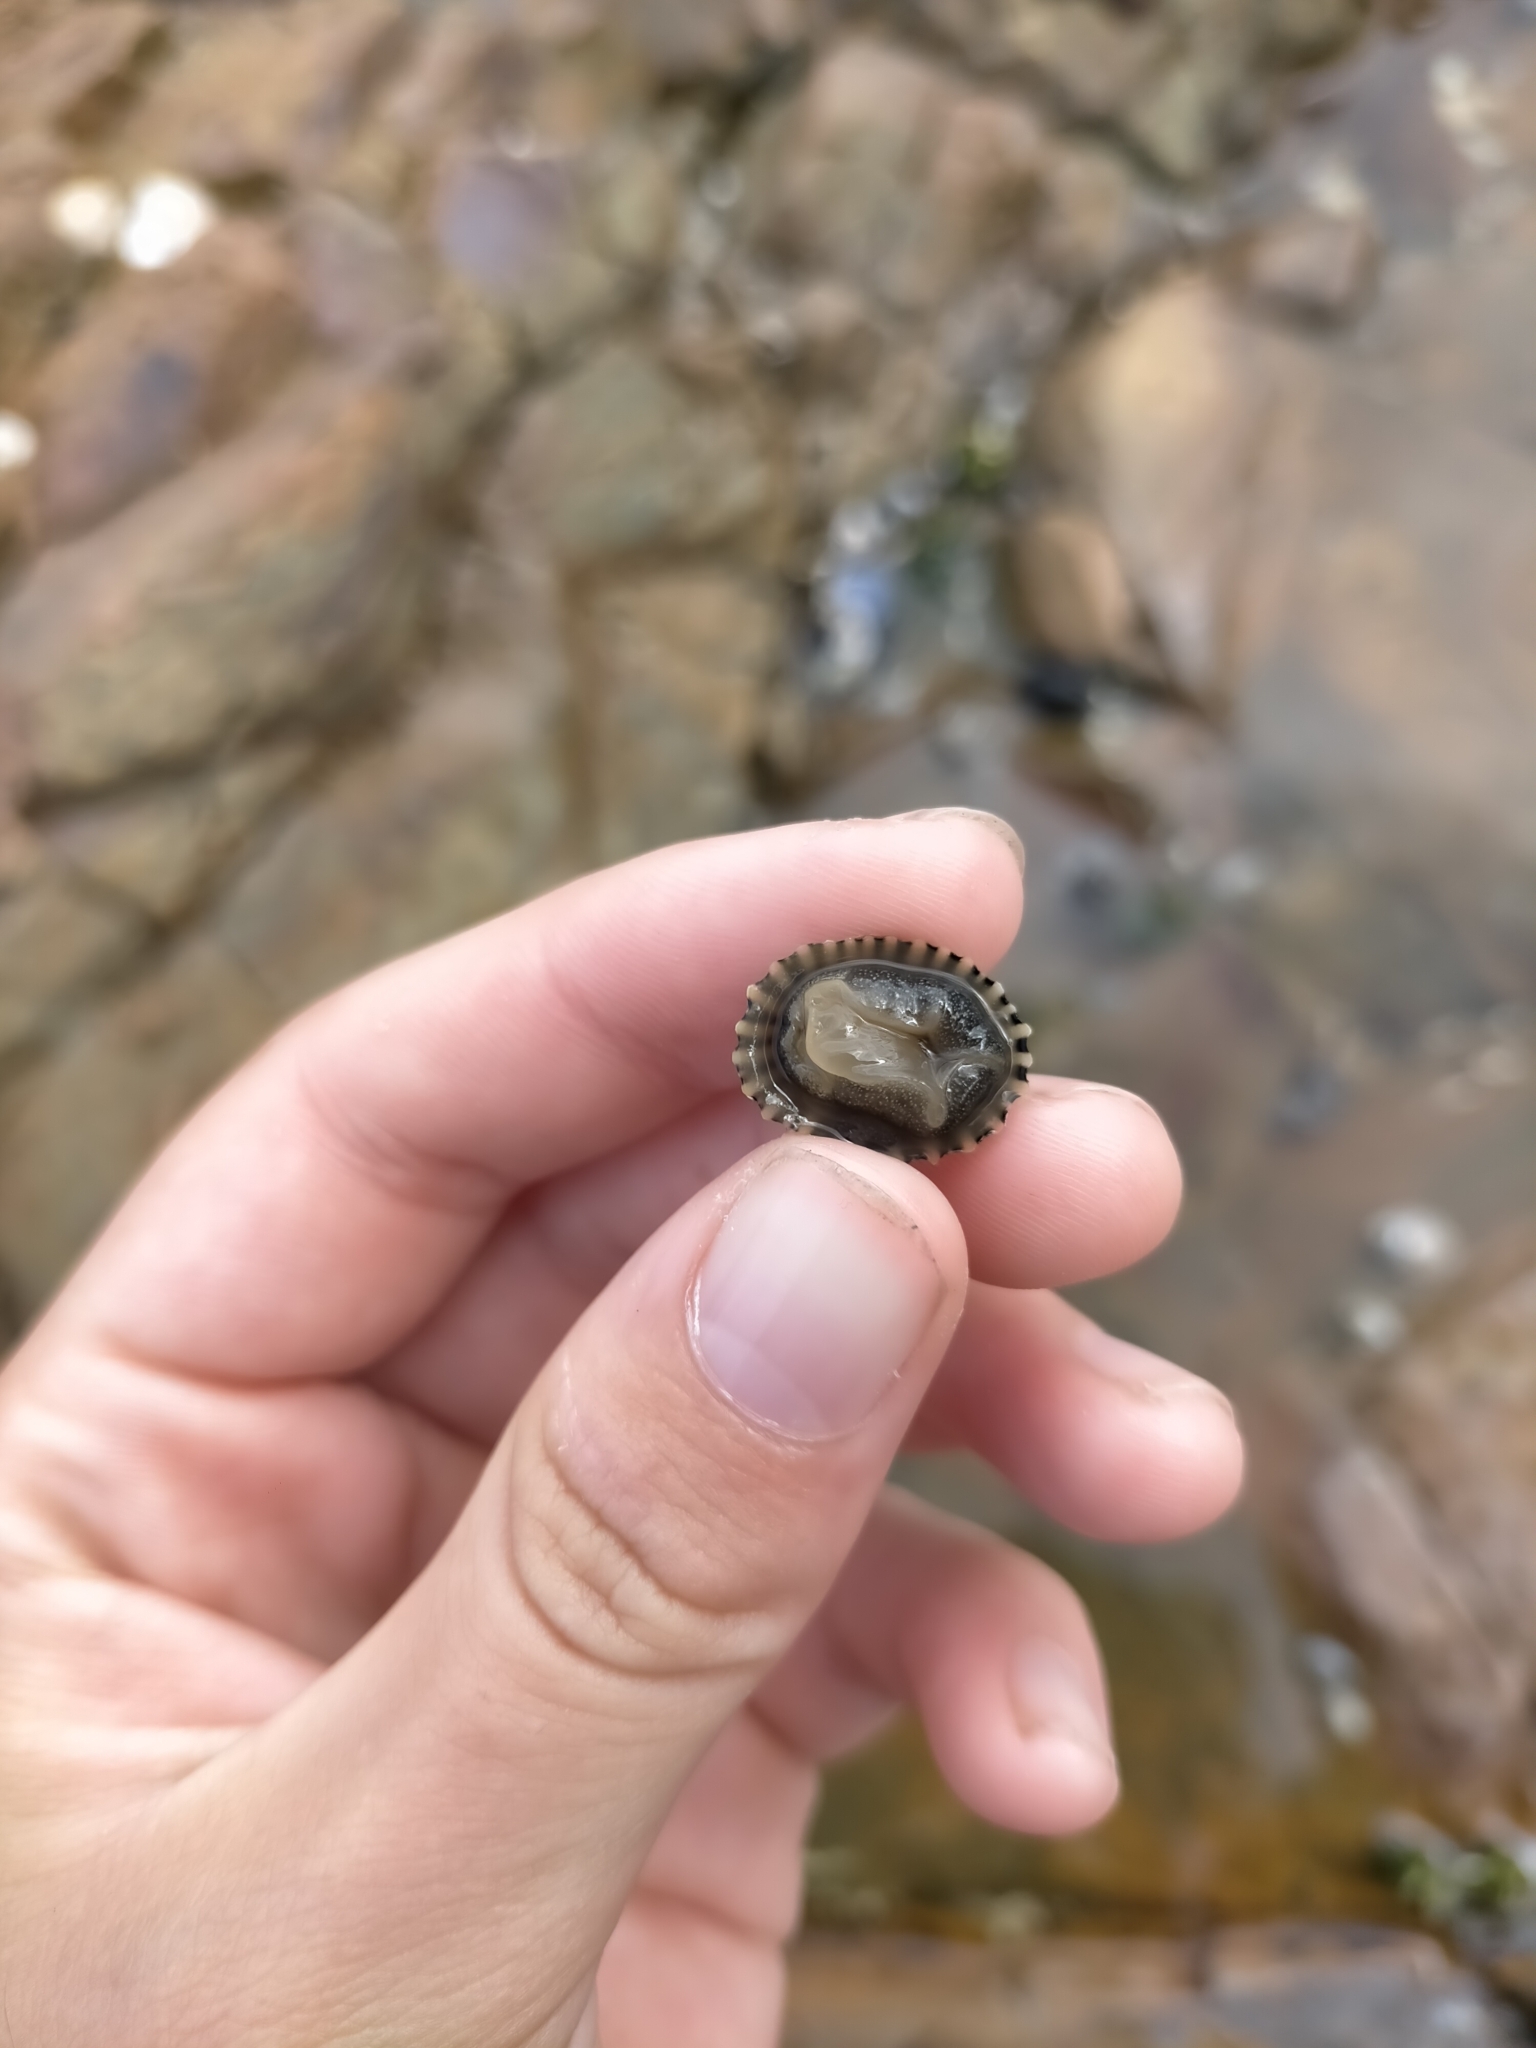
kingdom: Animalia
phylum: Mollusca
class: Gastropoda
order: Siphonariida
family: Siphonariidae
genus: Siphonaria
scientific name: Siphonaria diemenensis
